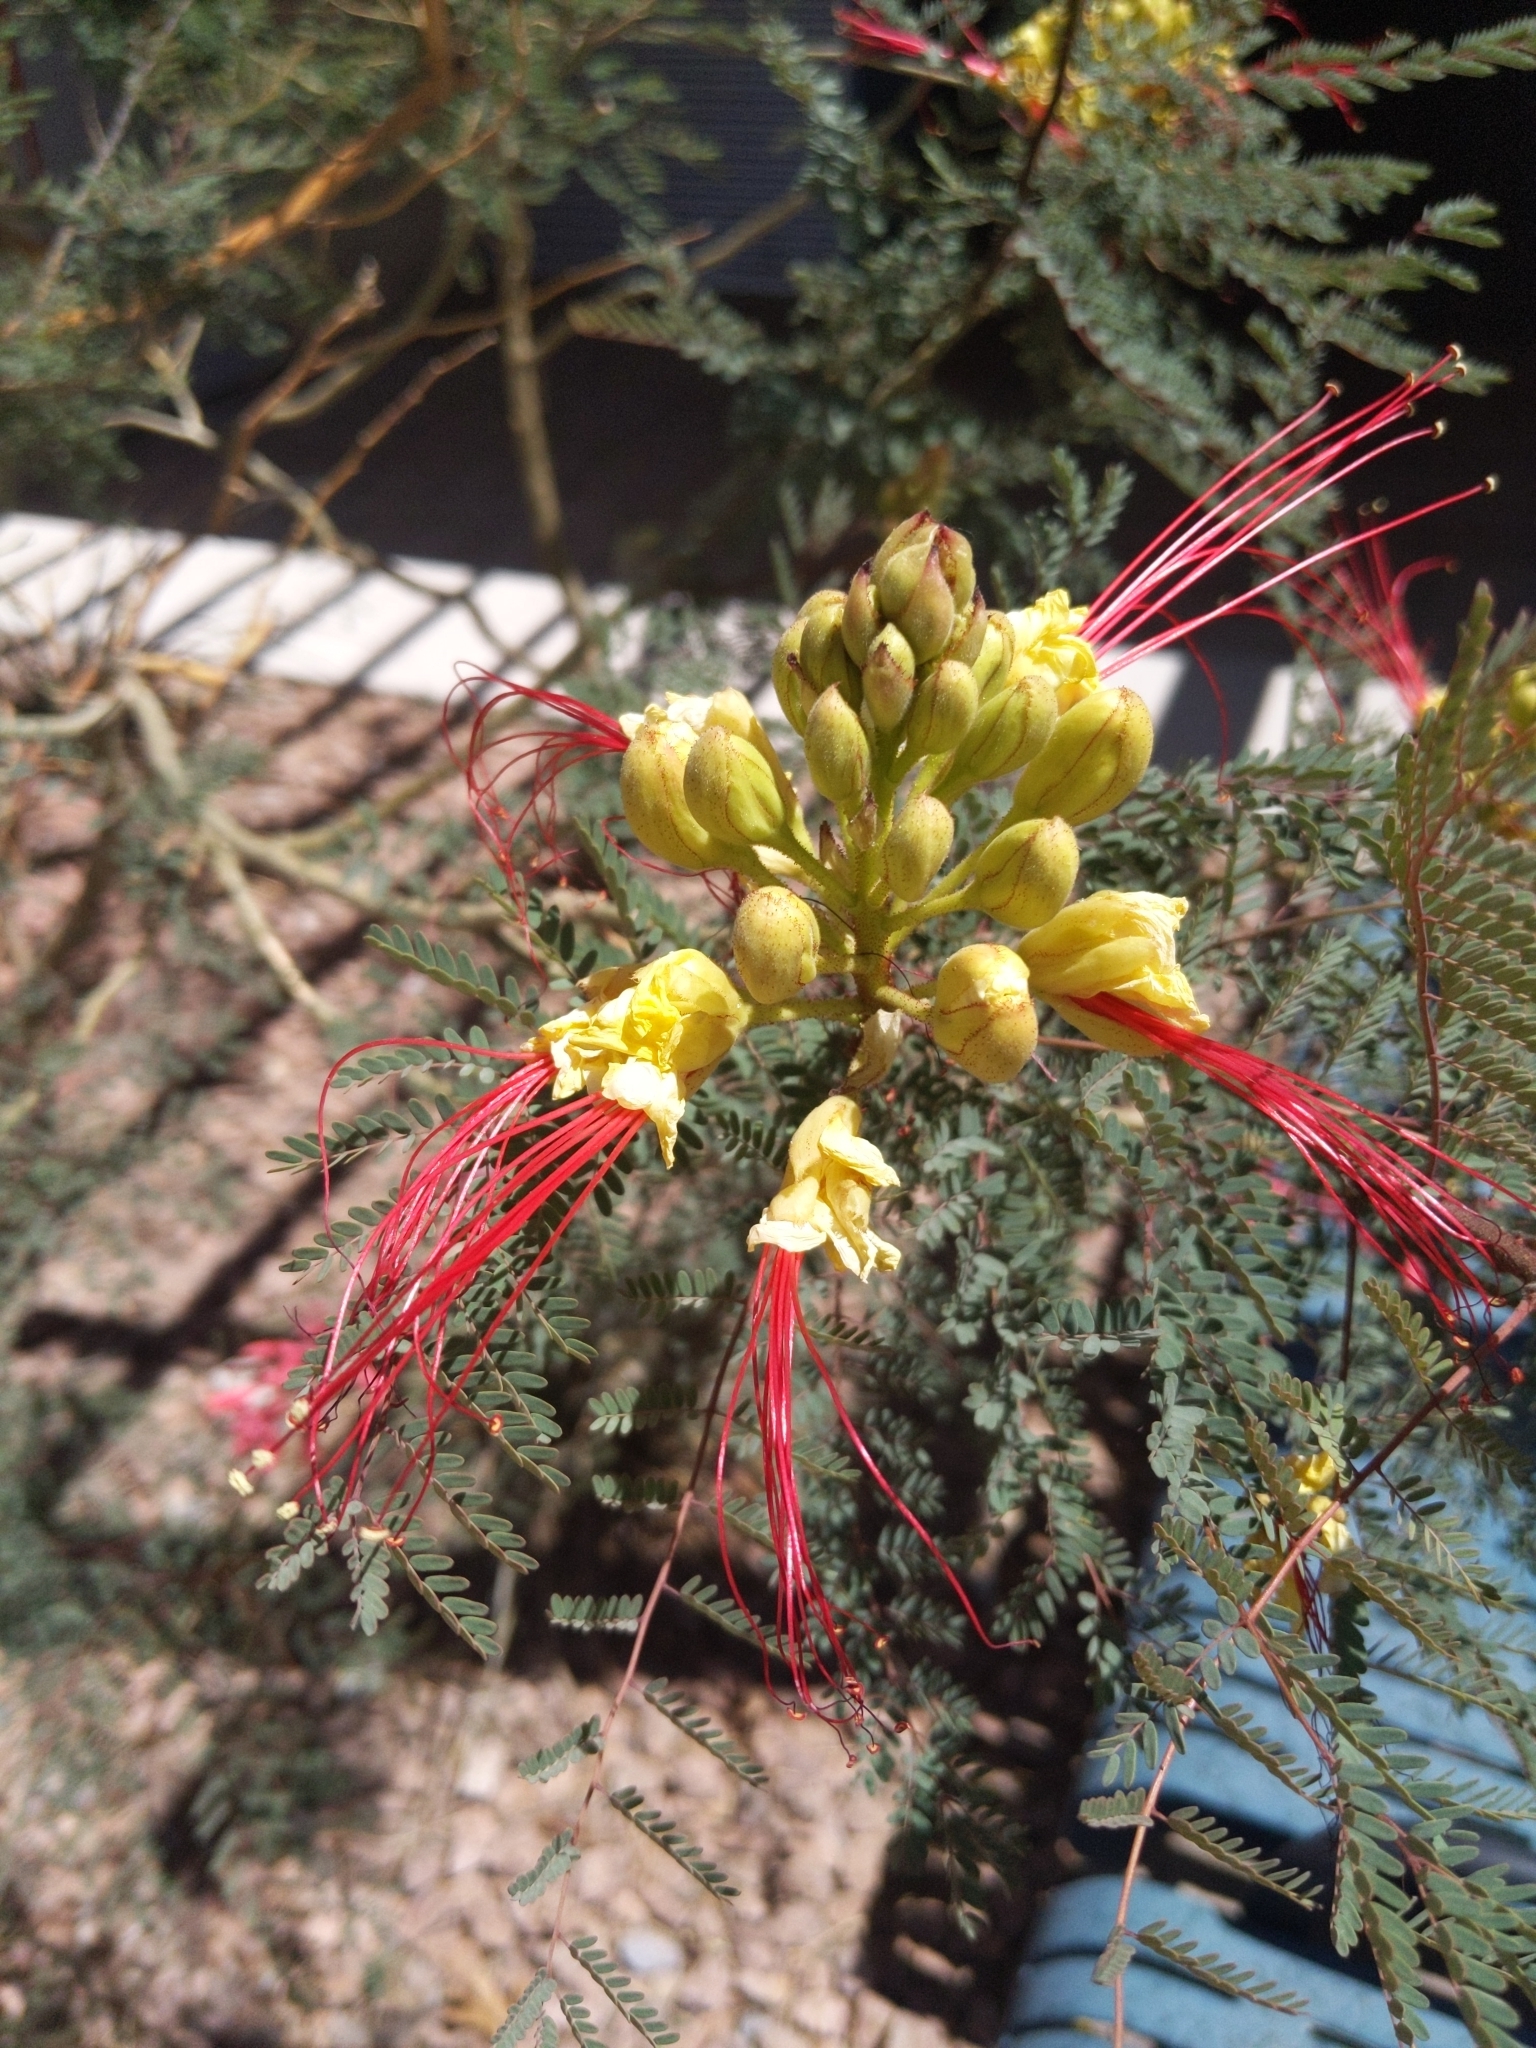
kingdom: Plantae
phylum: Tracheophyta
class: Magnoliopsida
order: Fabales
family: Fabaceae
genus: Erythrostemon
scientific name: Erythrostemon gilliesii
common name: Bird-of-paradise shrub
